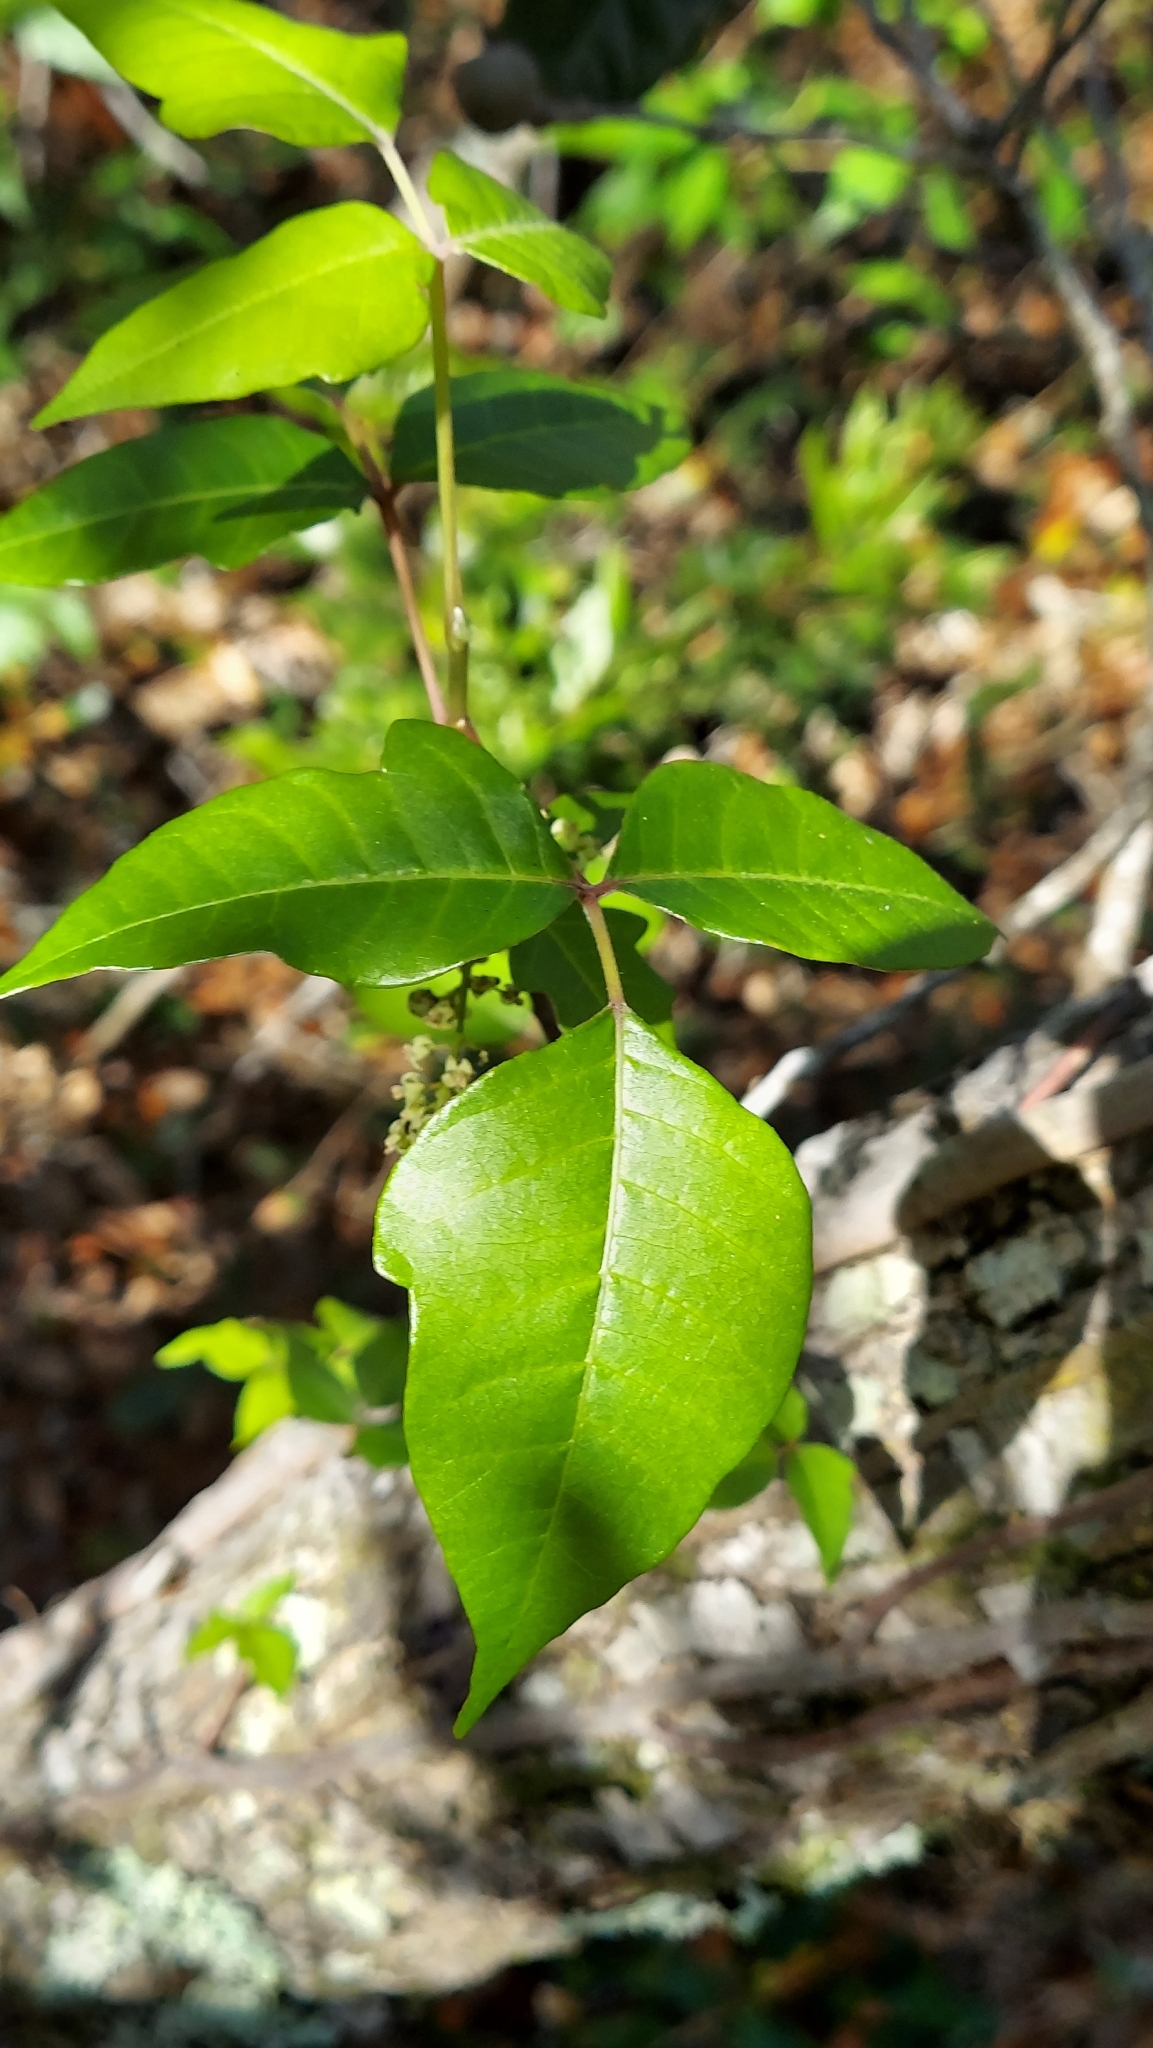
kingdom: Plantae
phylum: Tracheophyta
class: Magnoliopsida
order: Sapindales
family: Anacardiaceae
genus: Toxicodendron
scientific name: Toxicodendron radicans
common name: Poison ivy
